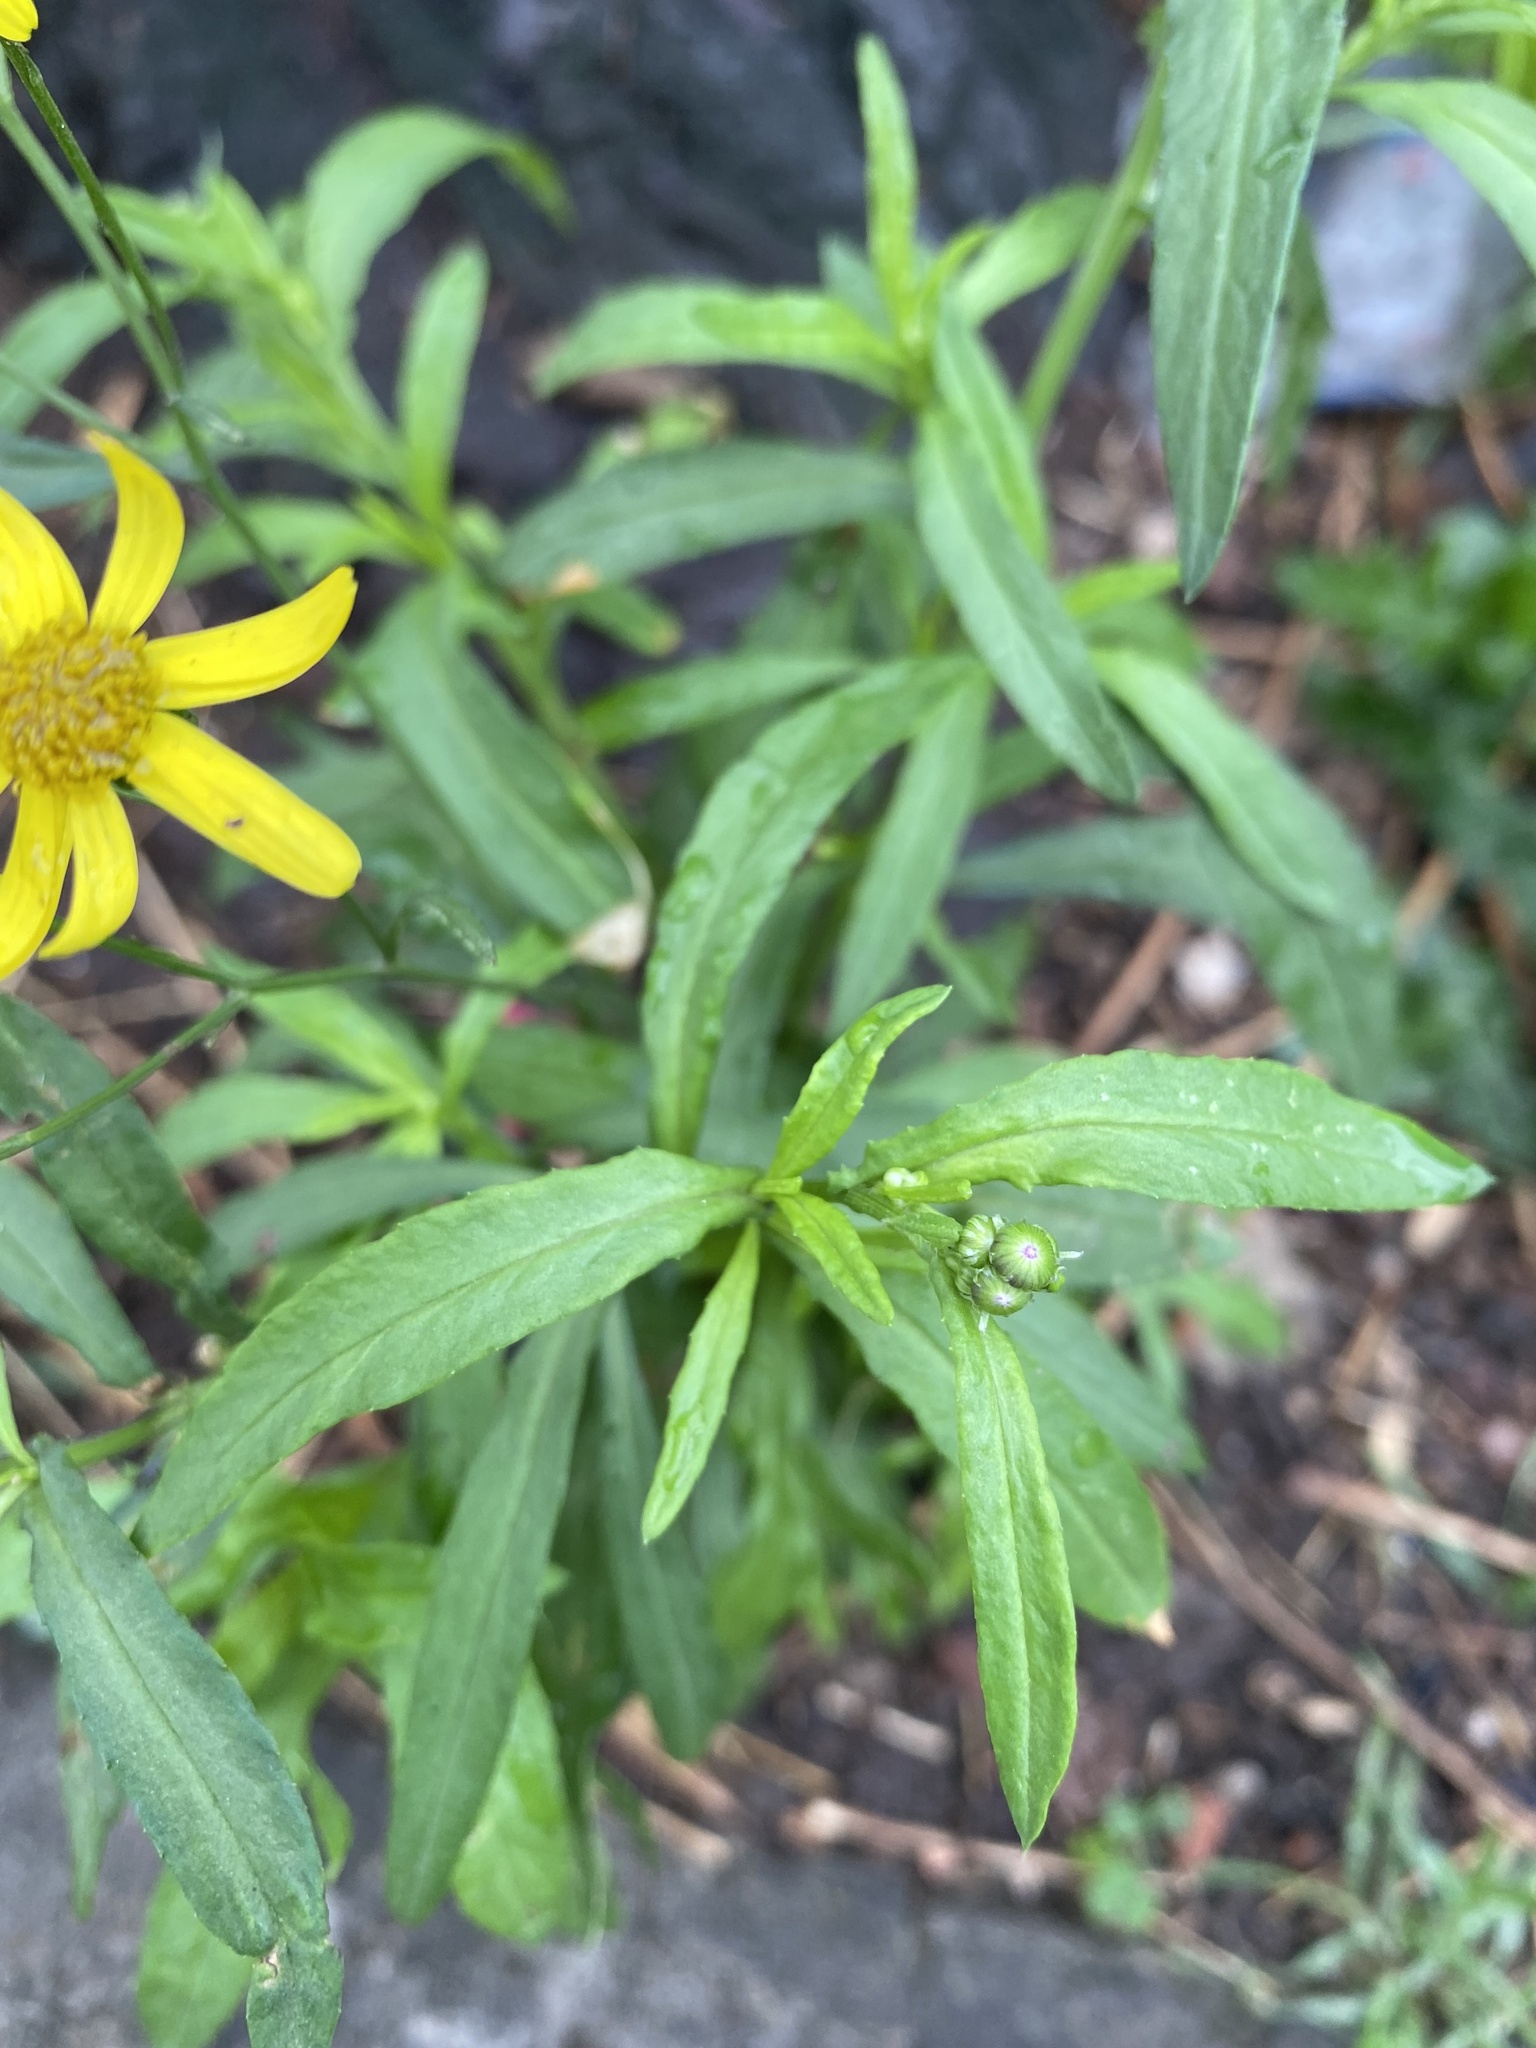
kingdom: Plantae
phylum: Tracheophyta
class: Magnoliopsida
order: Asterales
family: Asteraceae
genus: Senecio
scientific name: Senecio madagascariensis
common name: Madagascar ragwort
